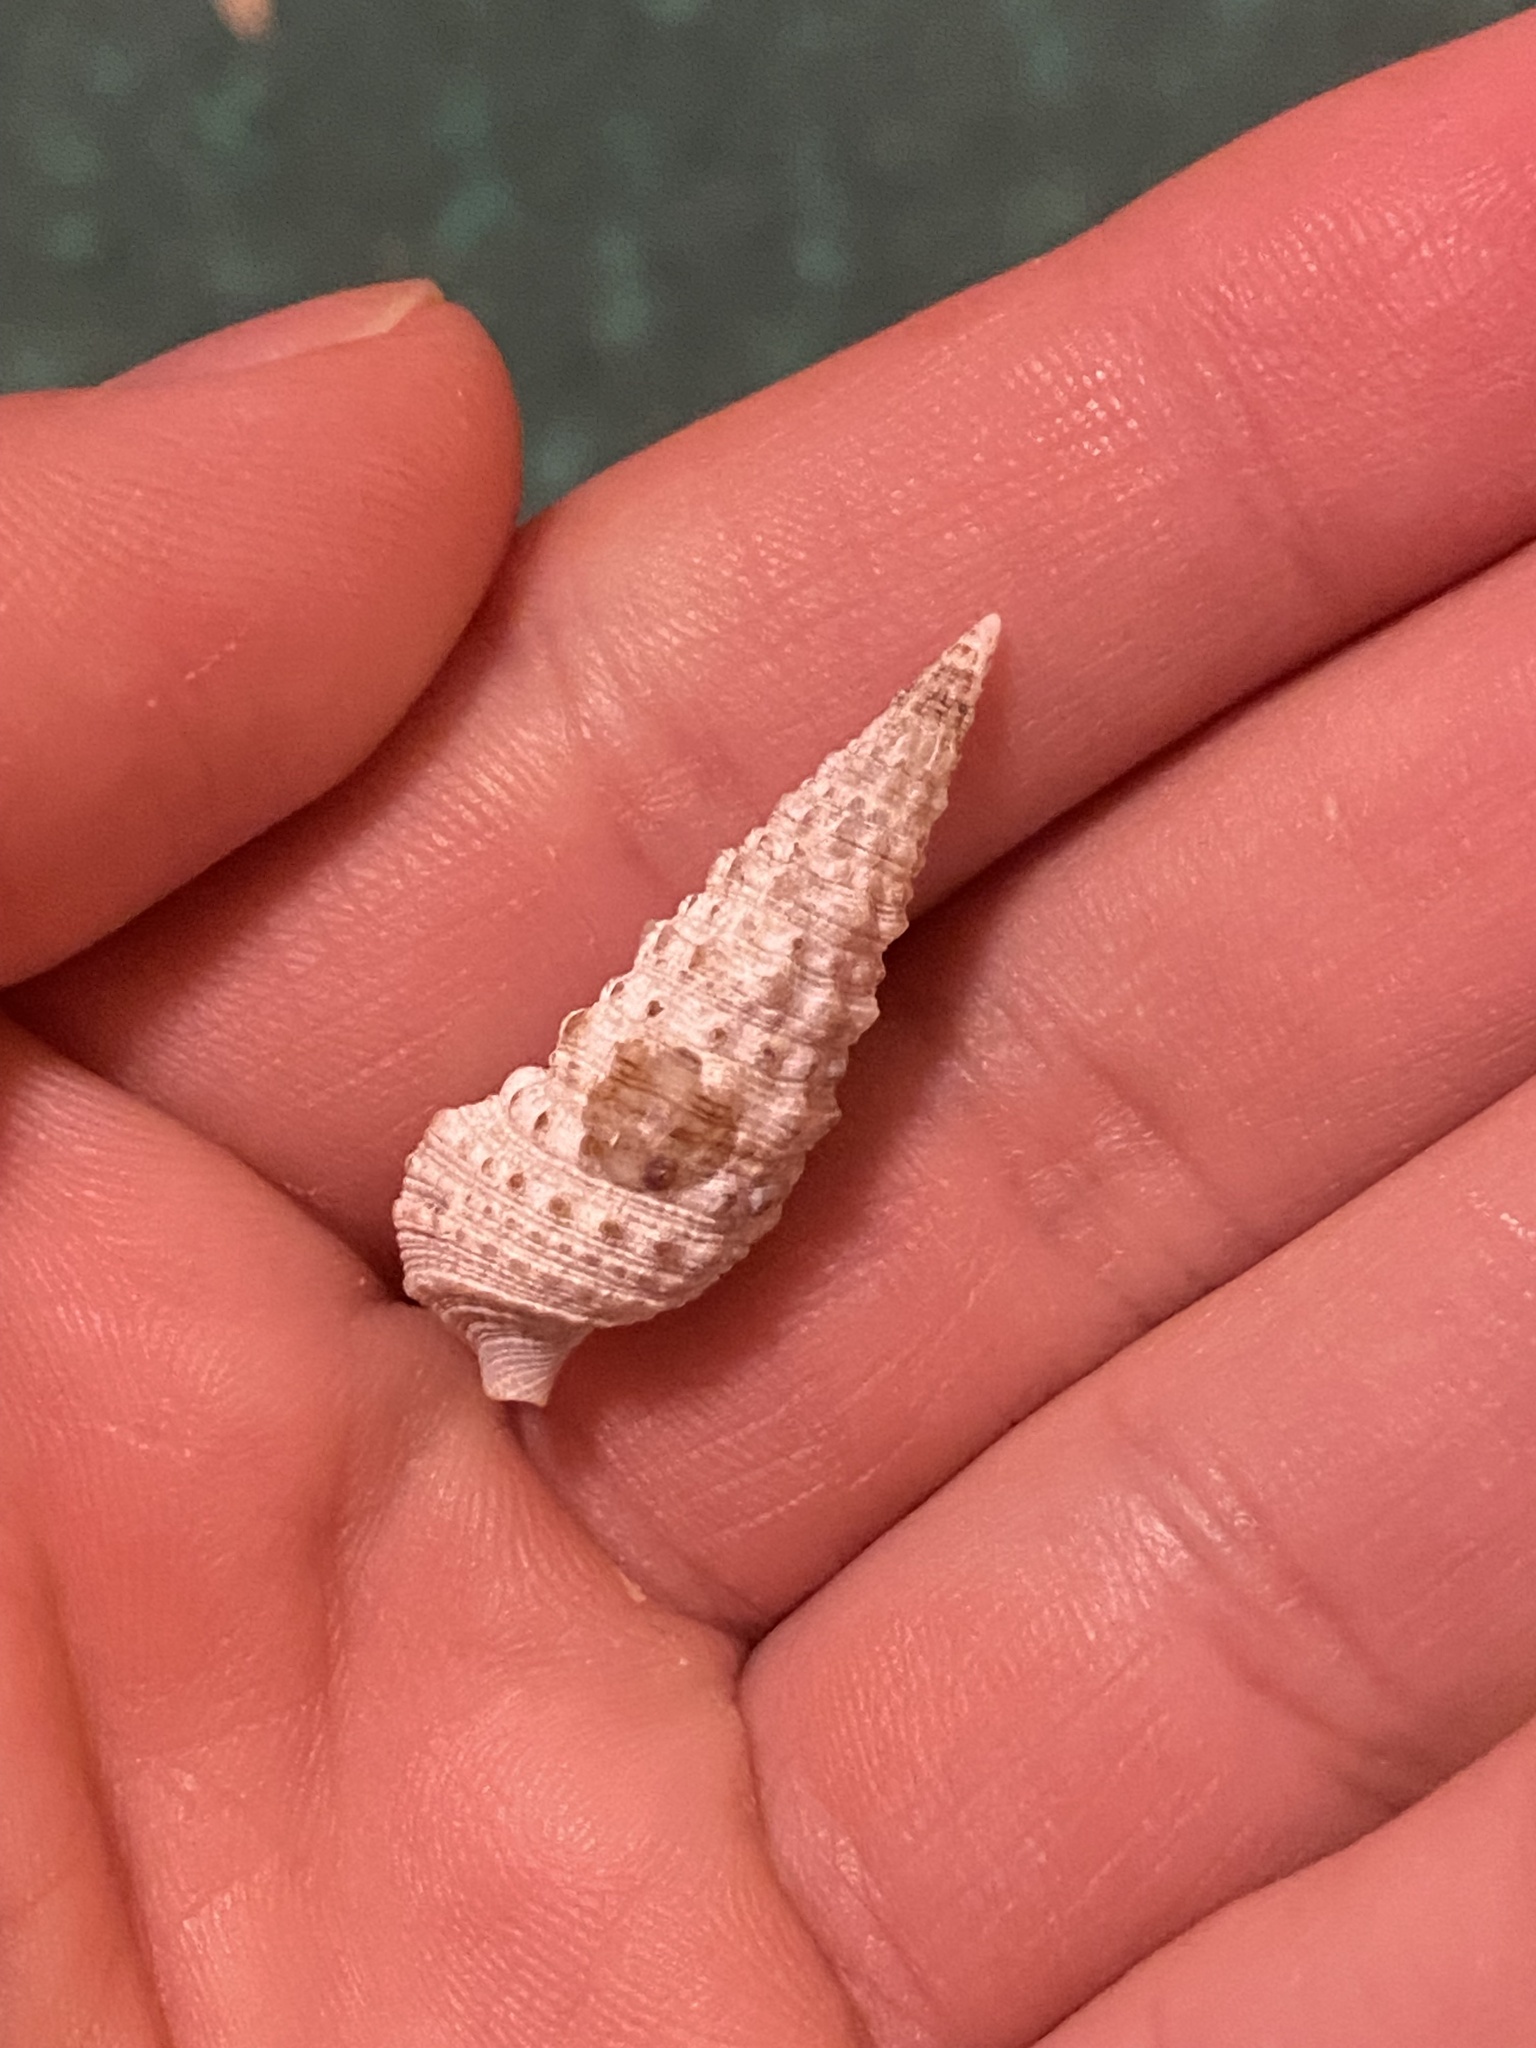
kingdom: Animalia
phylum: Mollusca
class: Gastropoda
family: Cerithiidae
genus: Cerithium
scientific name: Cerithium atratum
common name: Dark cerith
